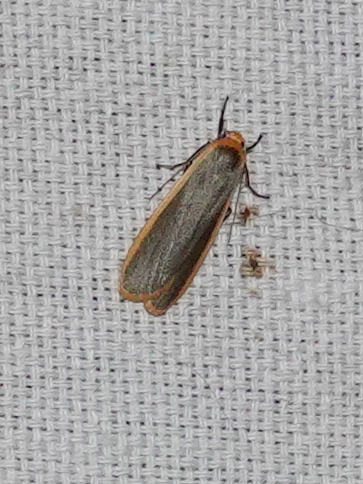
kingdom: Animalia
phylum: Arthropoda
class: Insecta
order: Lepidoptera
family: Erebidae
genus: Brunia
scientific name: Brunia antica
